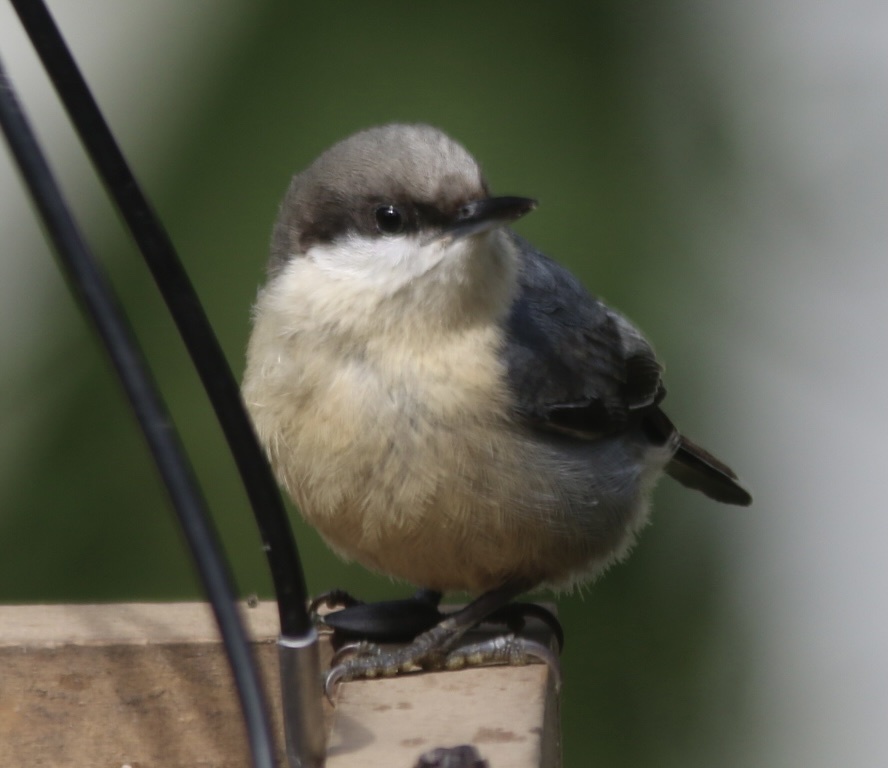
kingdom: Animalia
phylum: Chordata
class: Aves
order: Passeriformes
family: Sittidae
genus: Sitta
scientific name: Sitta pygmaea
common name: Pygmy nuthatch
